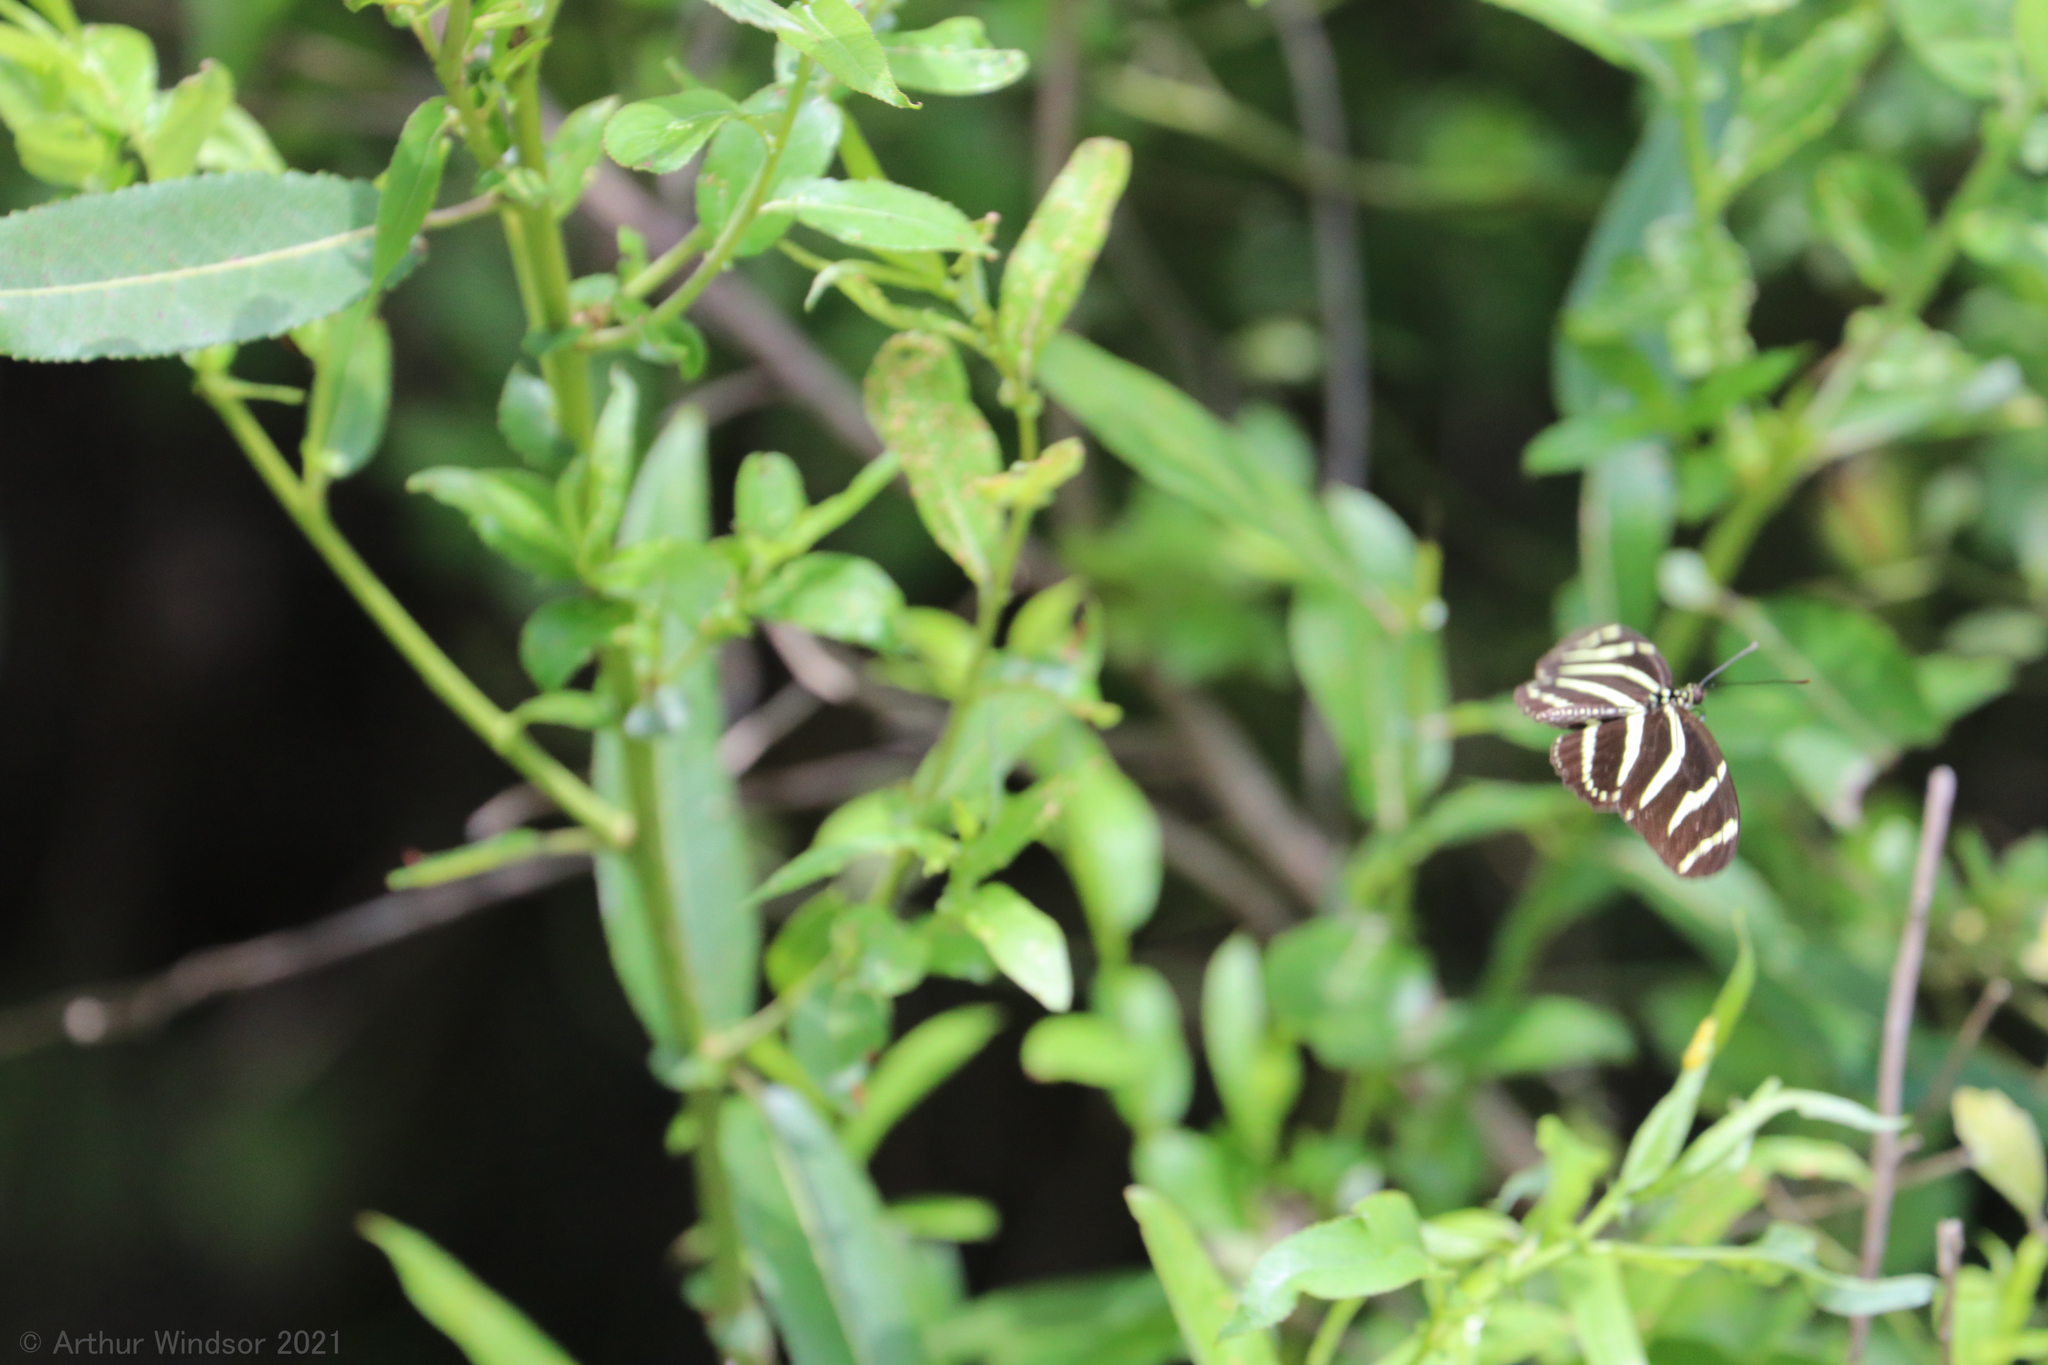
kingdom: Animalia
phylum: Arthropoda
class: Insecta
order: Lepidoptera
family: Nymphalidae
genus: Heliconius
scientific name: Heliconius charithonia
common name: Zebra long wing
